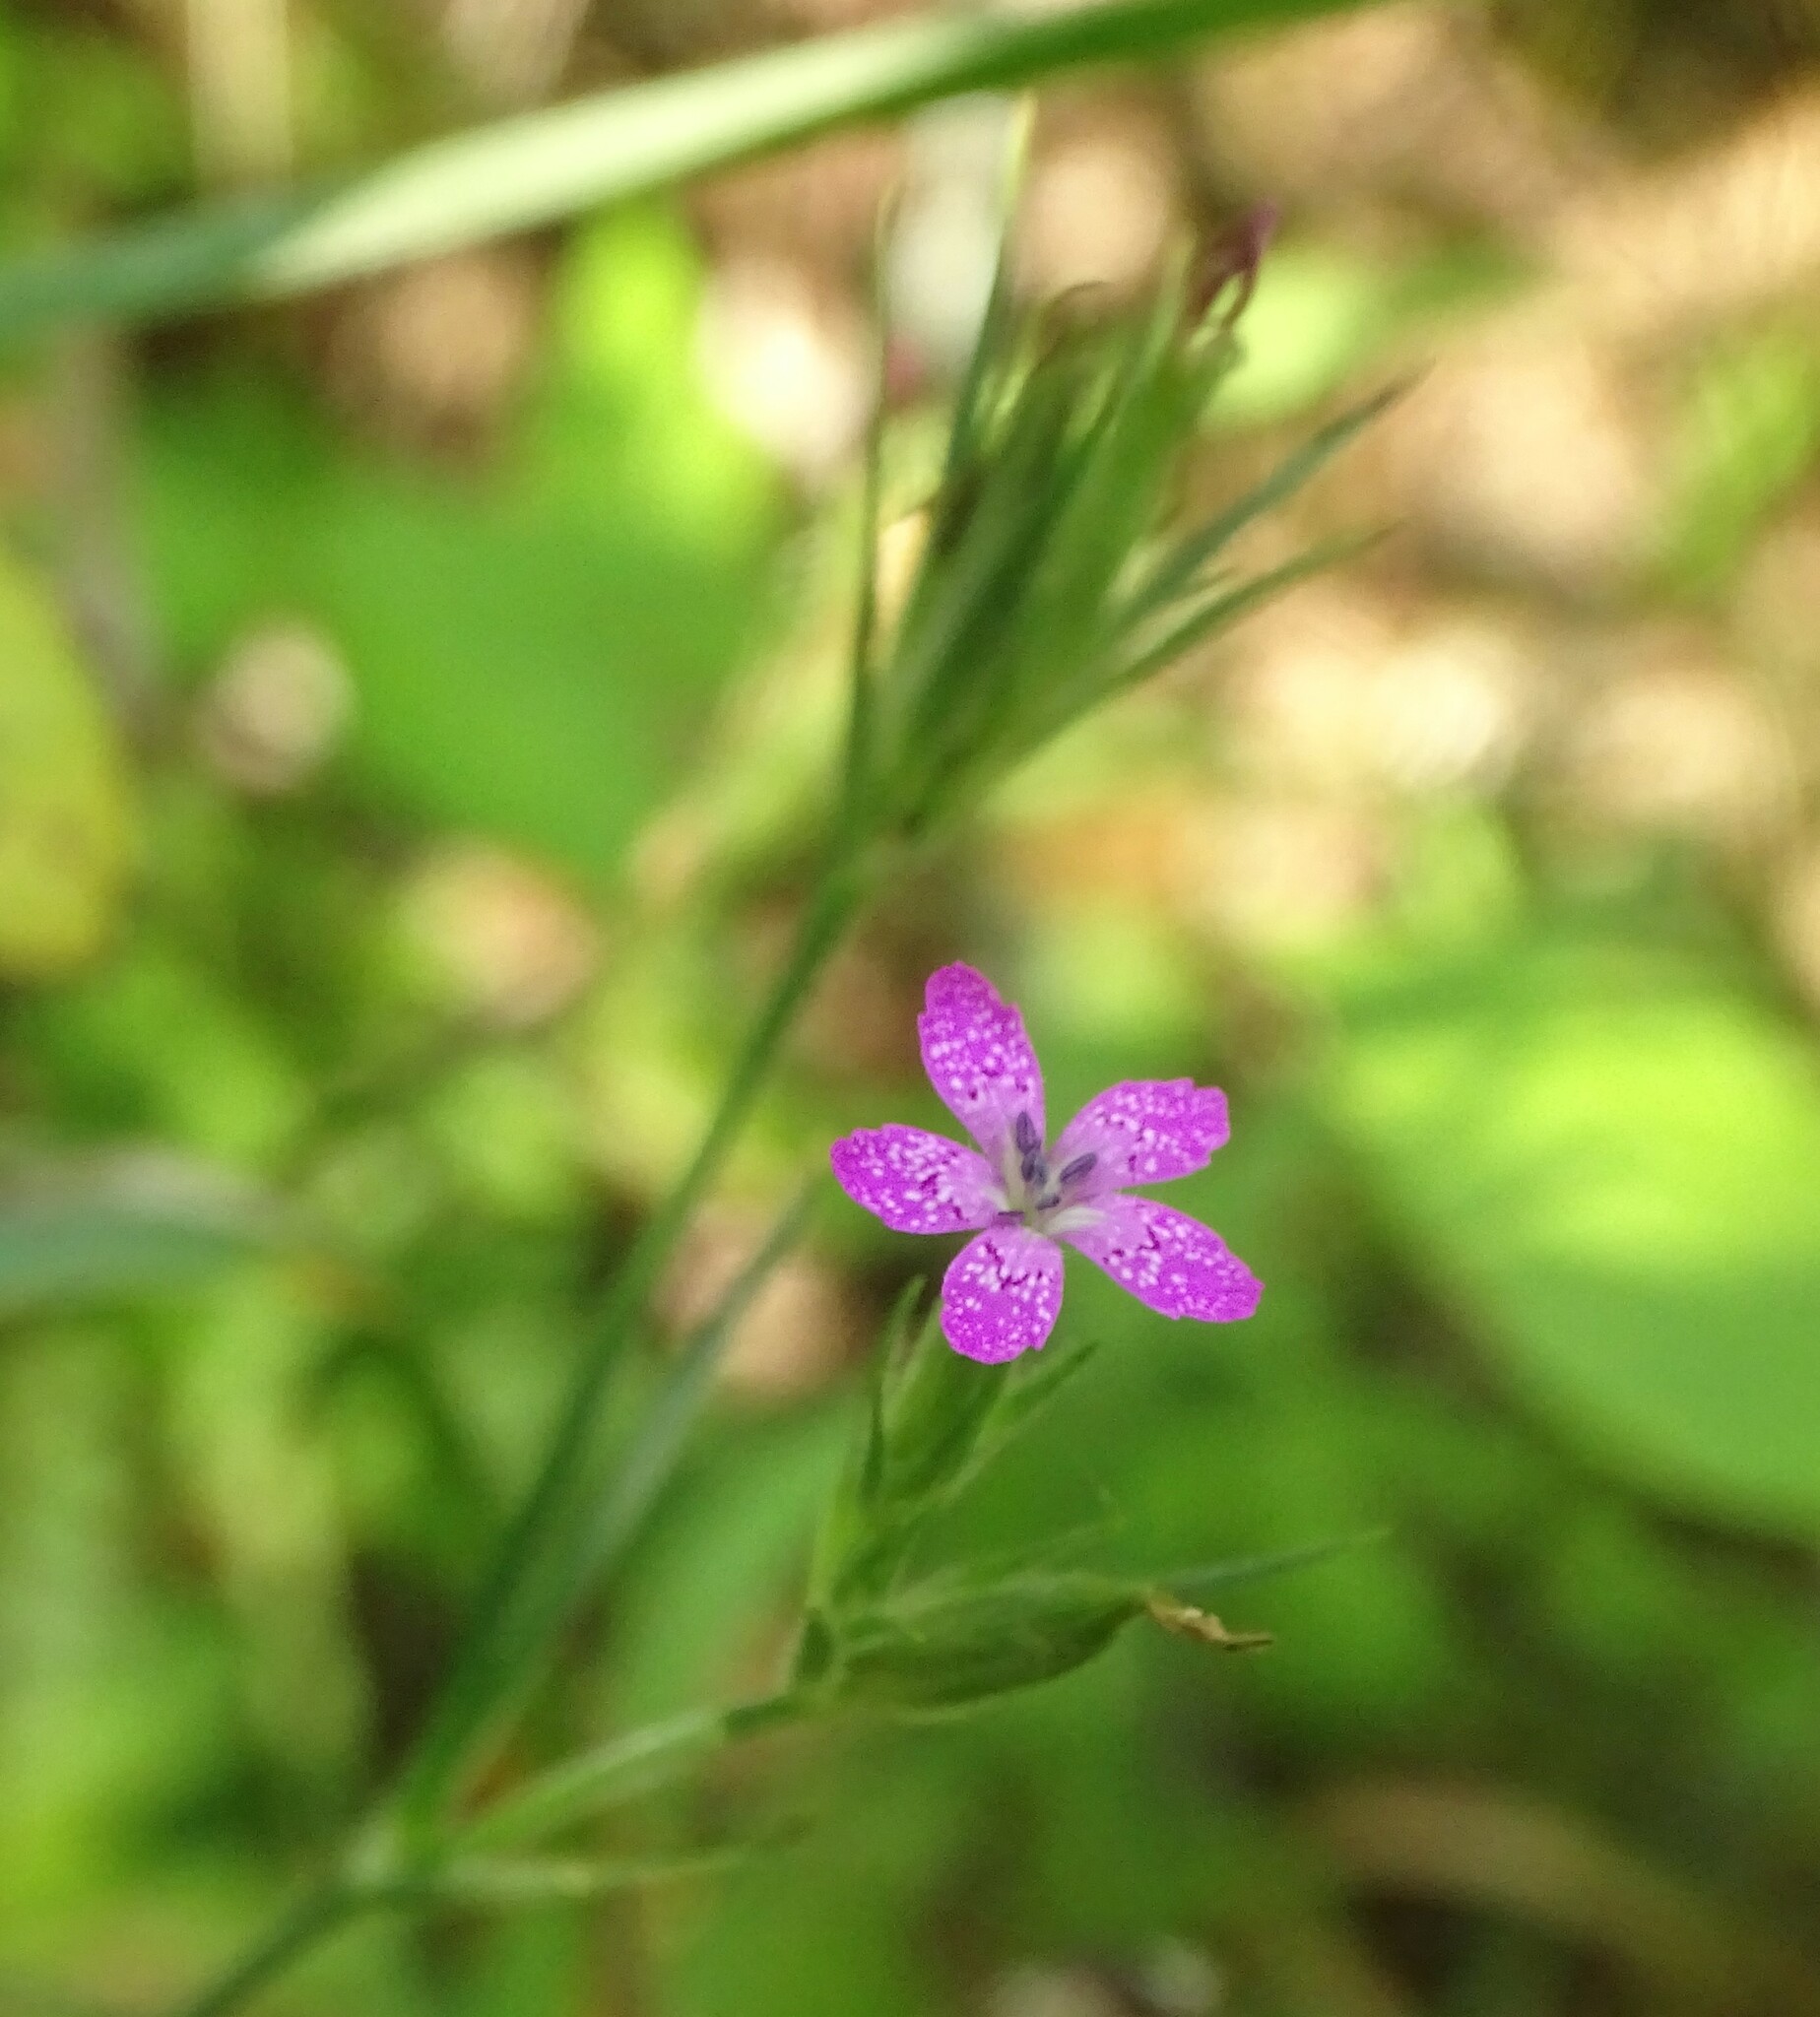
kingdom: Plantae
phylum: Tracheophyta
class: Magnoliopsida
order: Caryophyllales
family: Caryophyllaceae
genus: Dianthus
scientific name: Dianthus armeria
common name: Deptford pink
